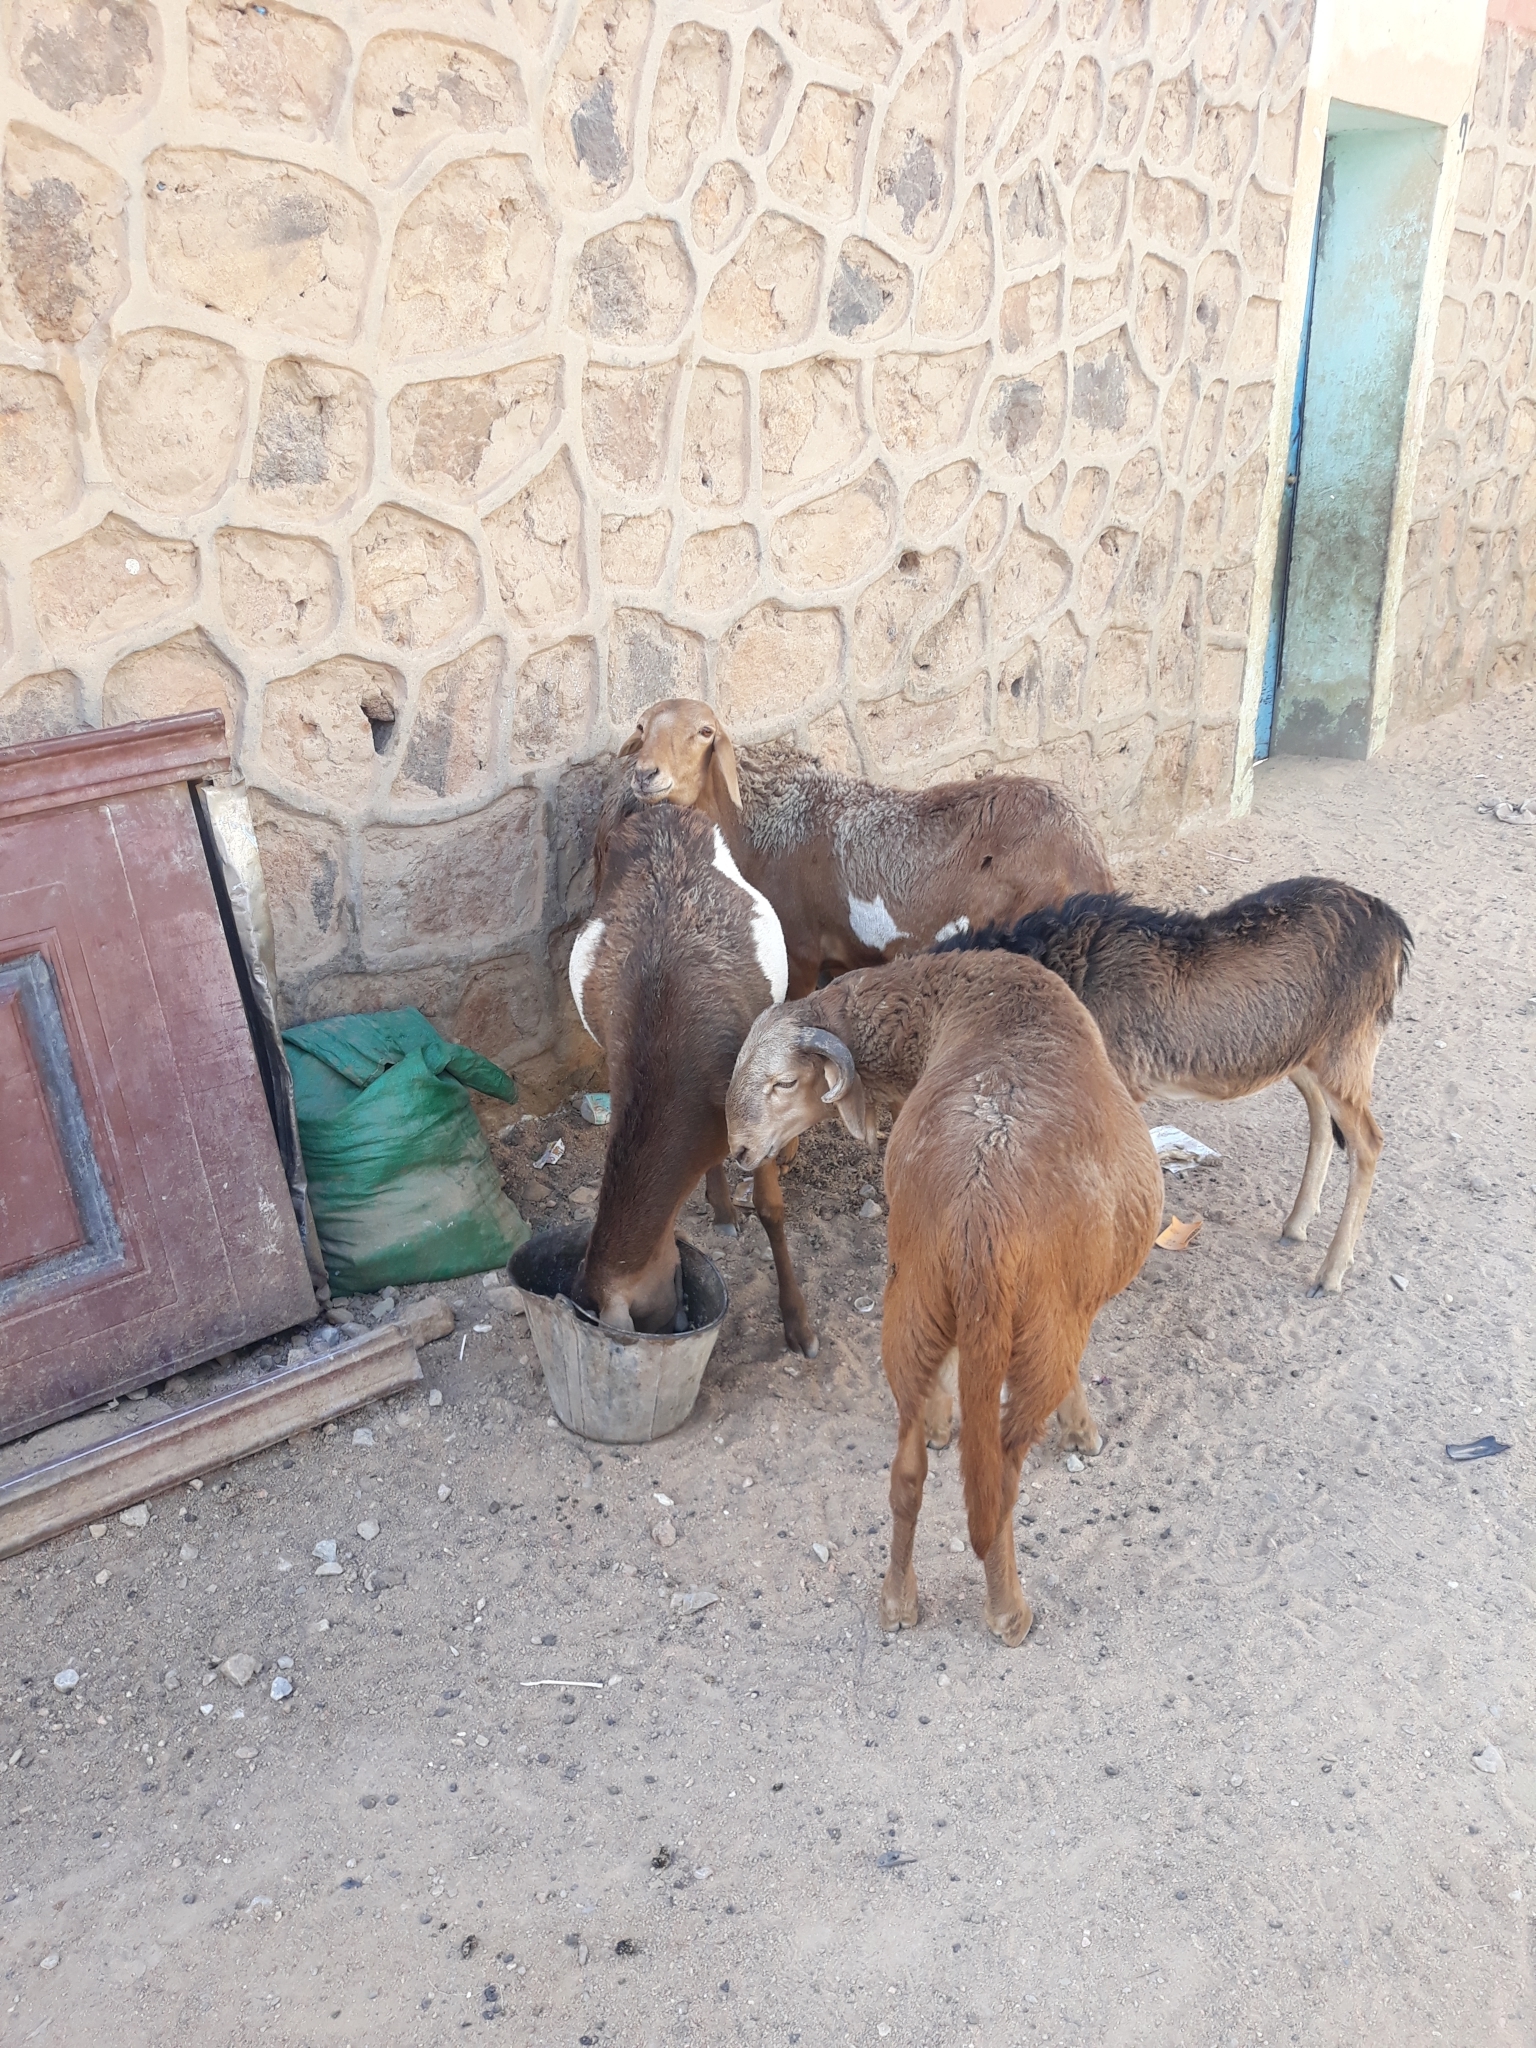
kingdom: Animalia
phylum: Chordata
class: Mammalia
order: Artiodactyla
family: Bovidae
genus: Ovis
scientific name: Ovis aries
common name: Domestic sheep
